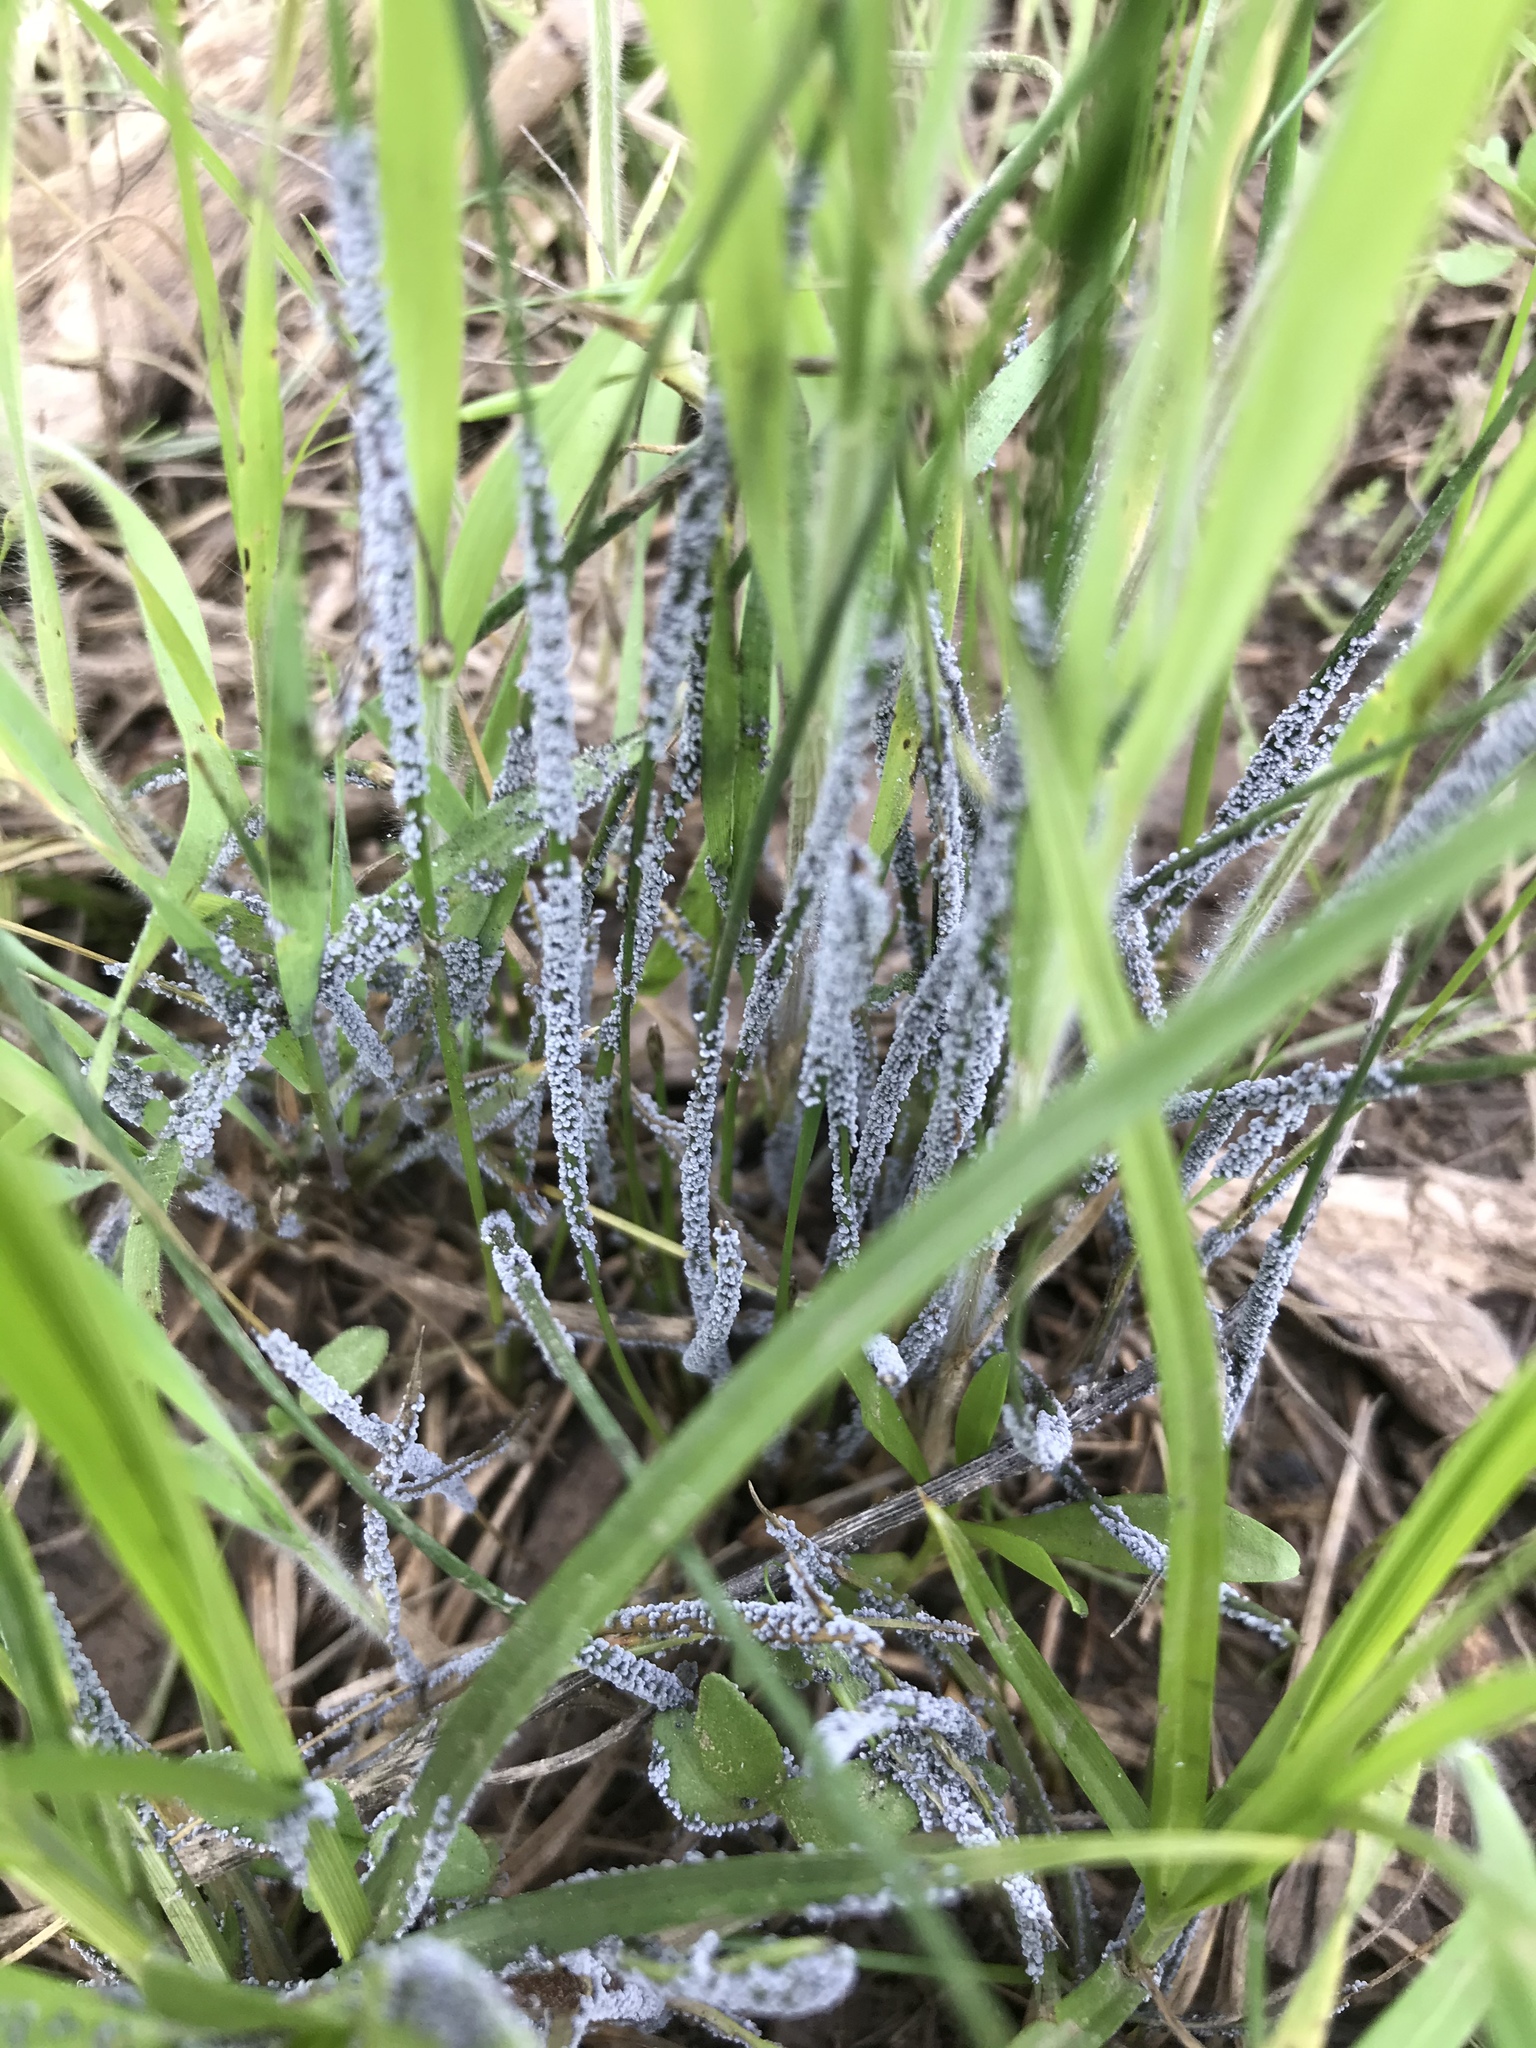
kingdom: Protozoa
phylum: Mycetozoa
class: Myxomycetes
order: Physarales
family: Physaraceae
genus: Physarum
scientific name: Physarum cinereum
